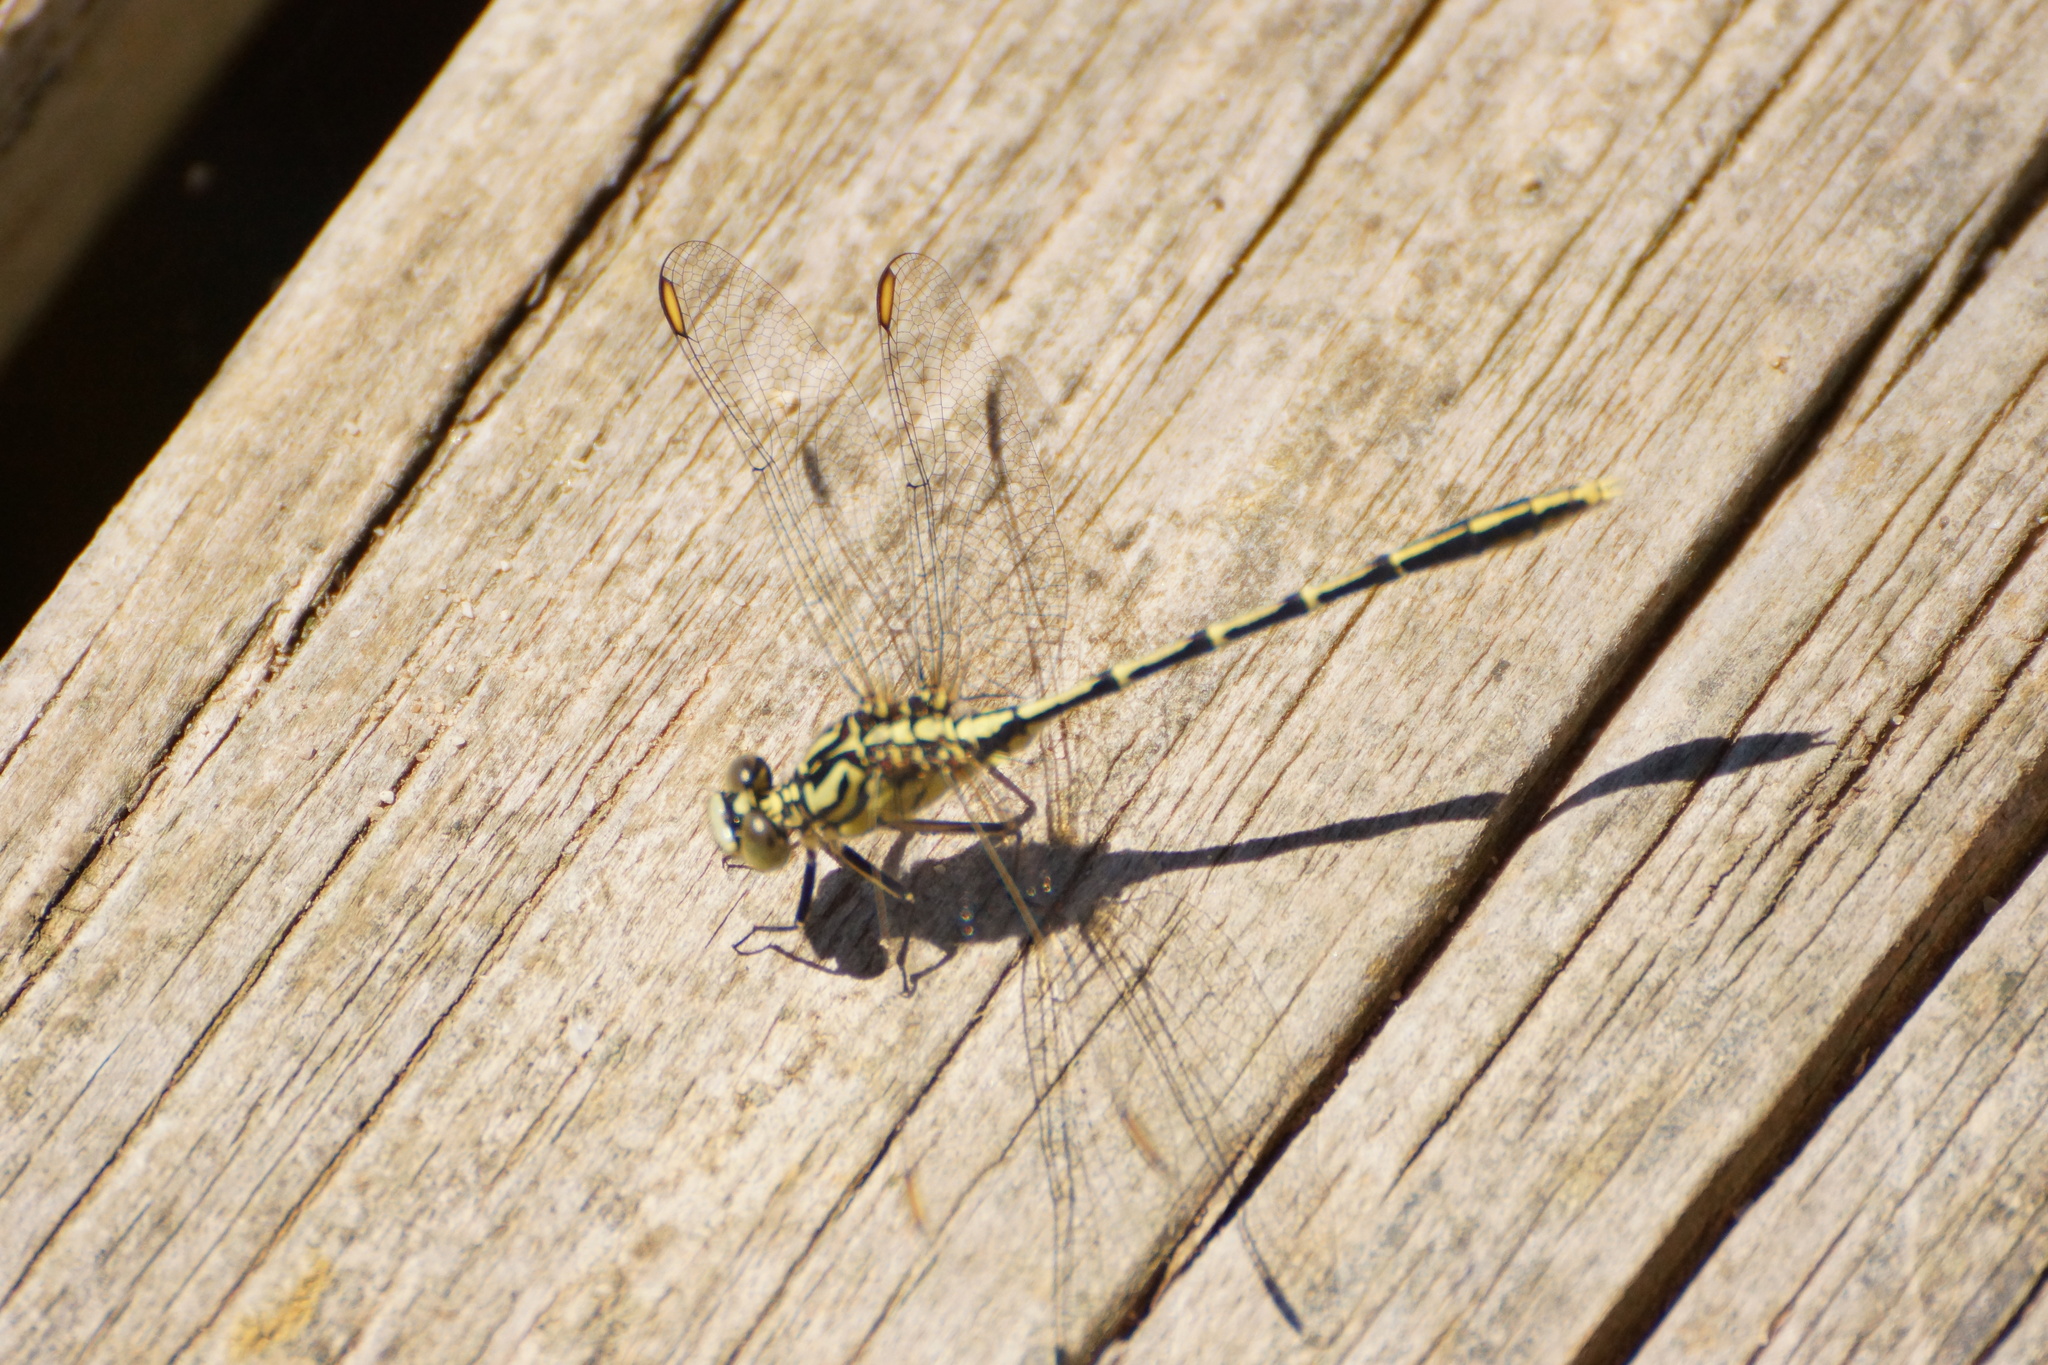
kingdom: Animalia
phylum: Arthropoda
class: Insecta
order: Odonata
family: Gomphidae
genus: Austrogomphus
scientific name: Austrogomphus guerini
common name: Yellow-striped hunter
